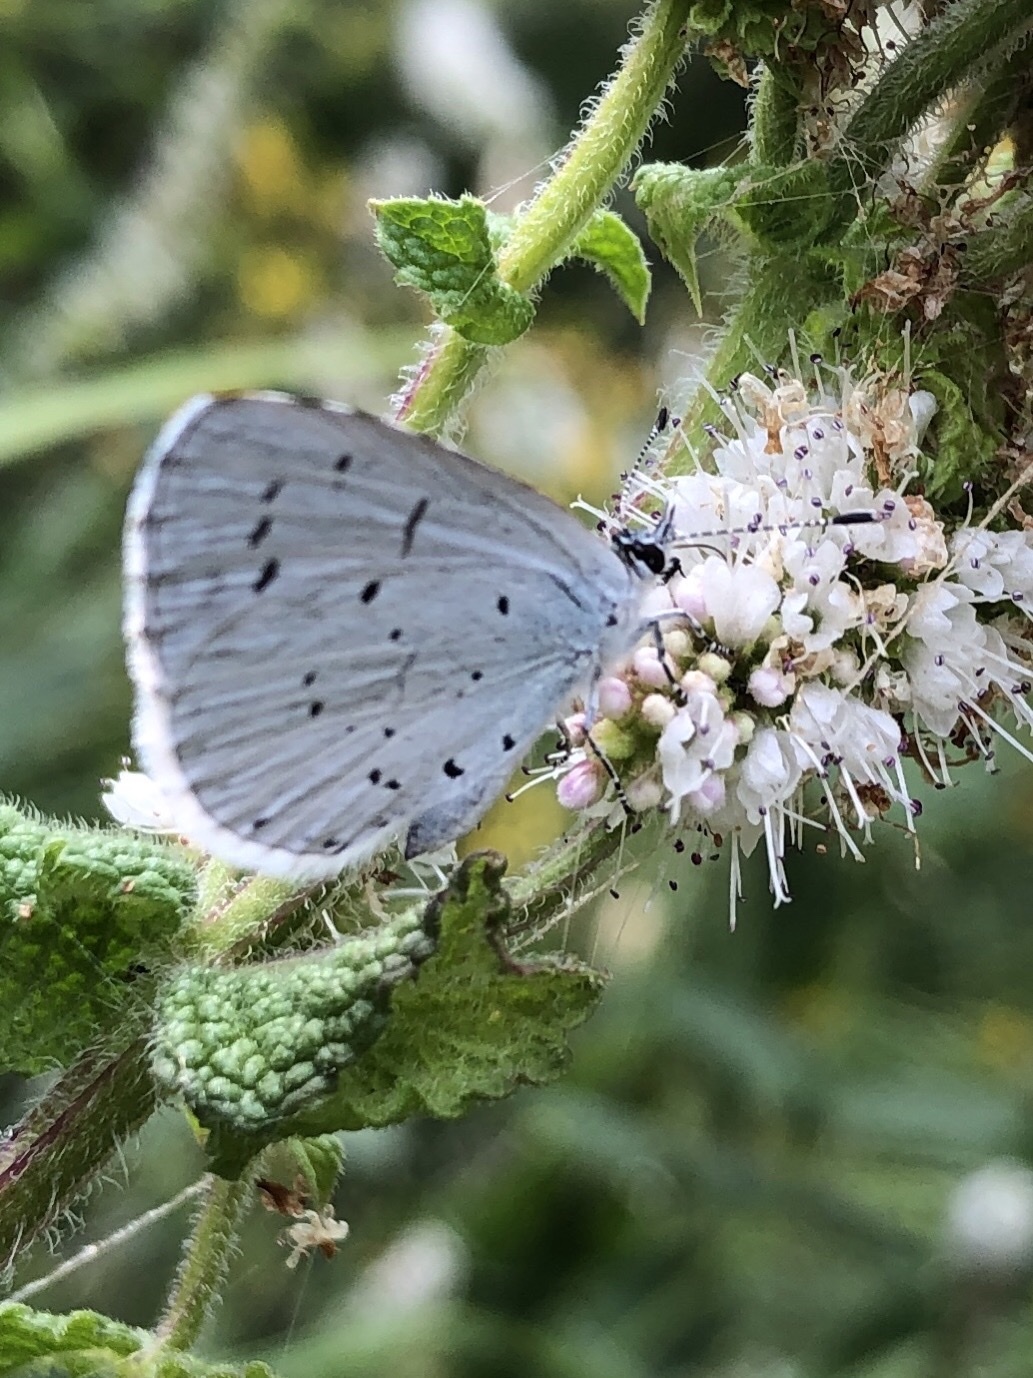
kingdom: Animalia
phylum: Arthropoda
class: Insecta
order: Lepidoptera
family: Lycaenidae
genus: Celastrina
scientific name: Celastrina argiolus
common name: Holly blue
